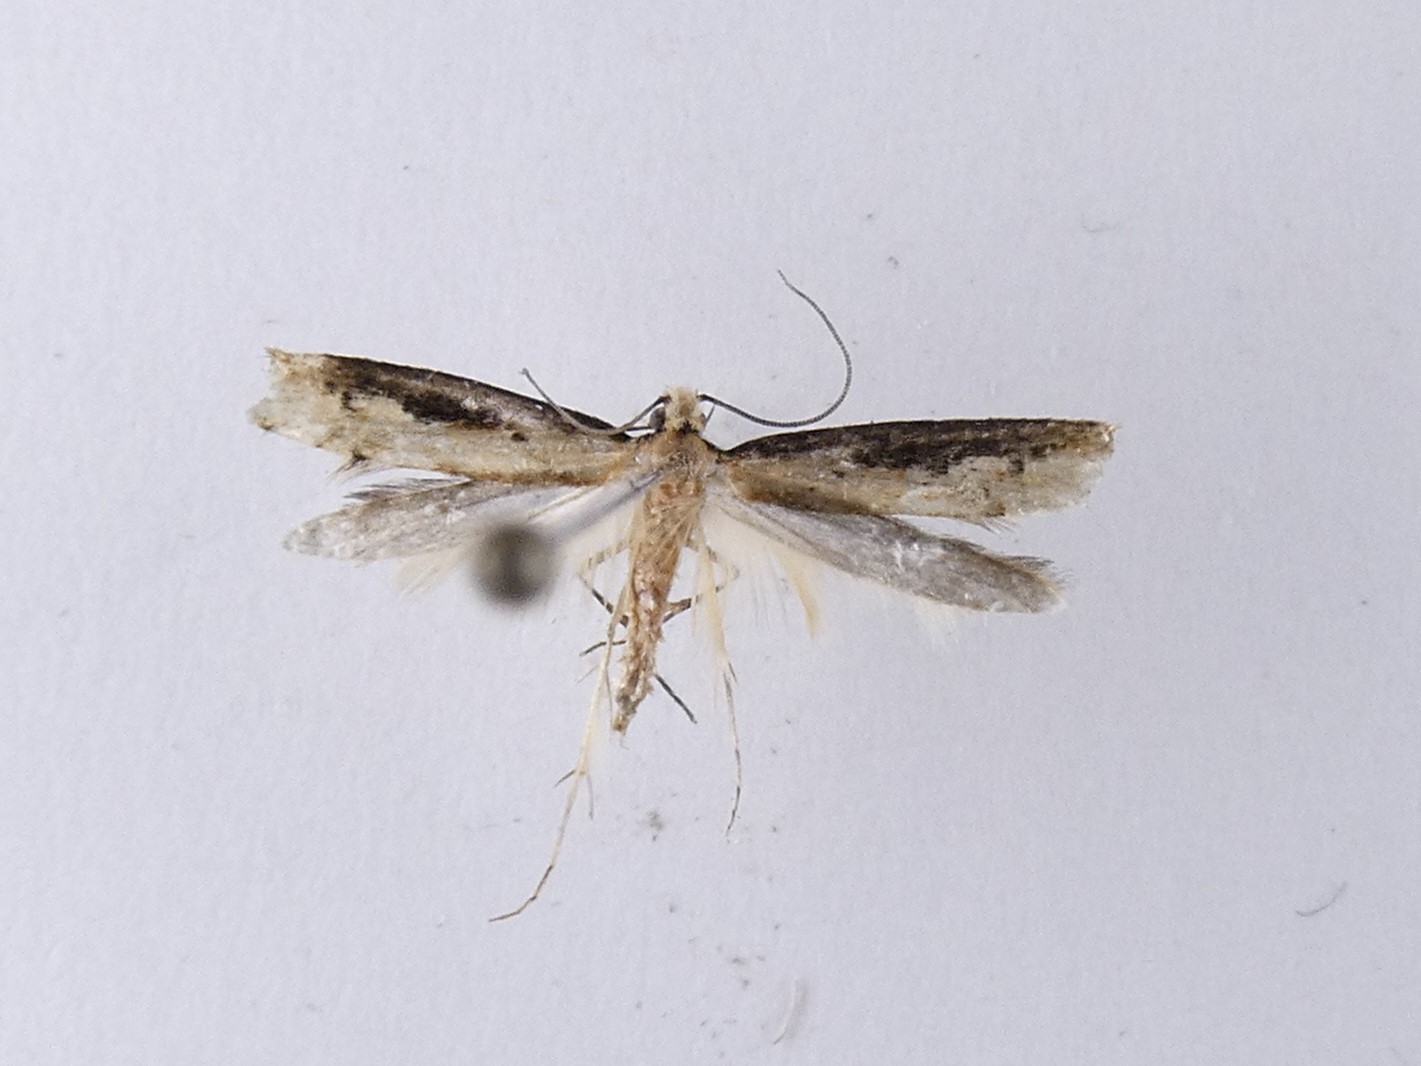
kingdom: Animalia
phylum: Arthropoda
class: Insecta
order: Lepidoptera
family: Tineidae
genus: Crypsitricha
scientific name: Crypsitricha generosa
